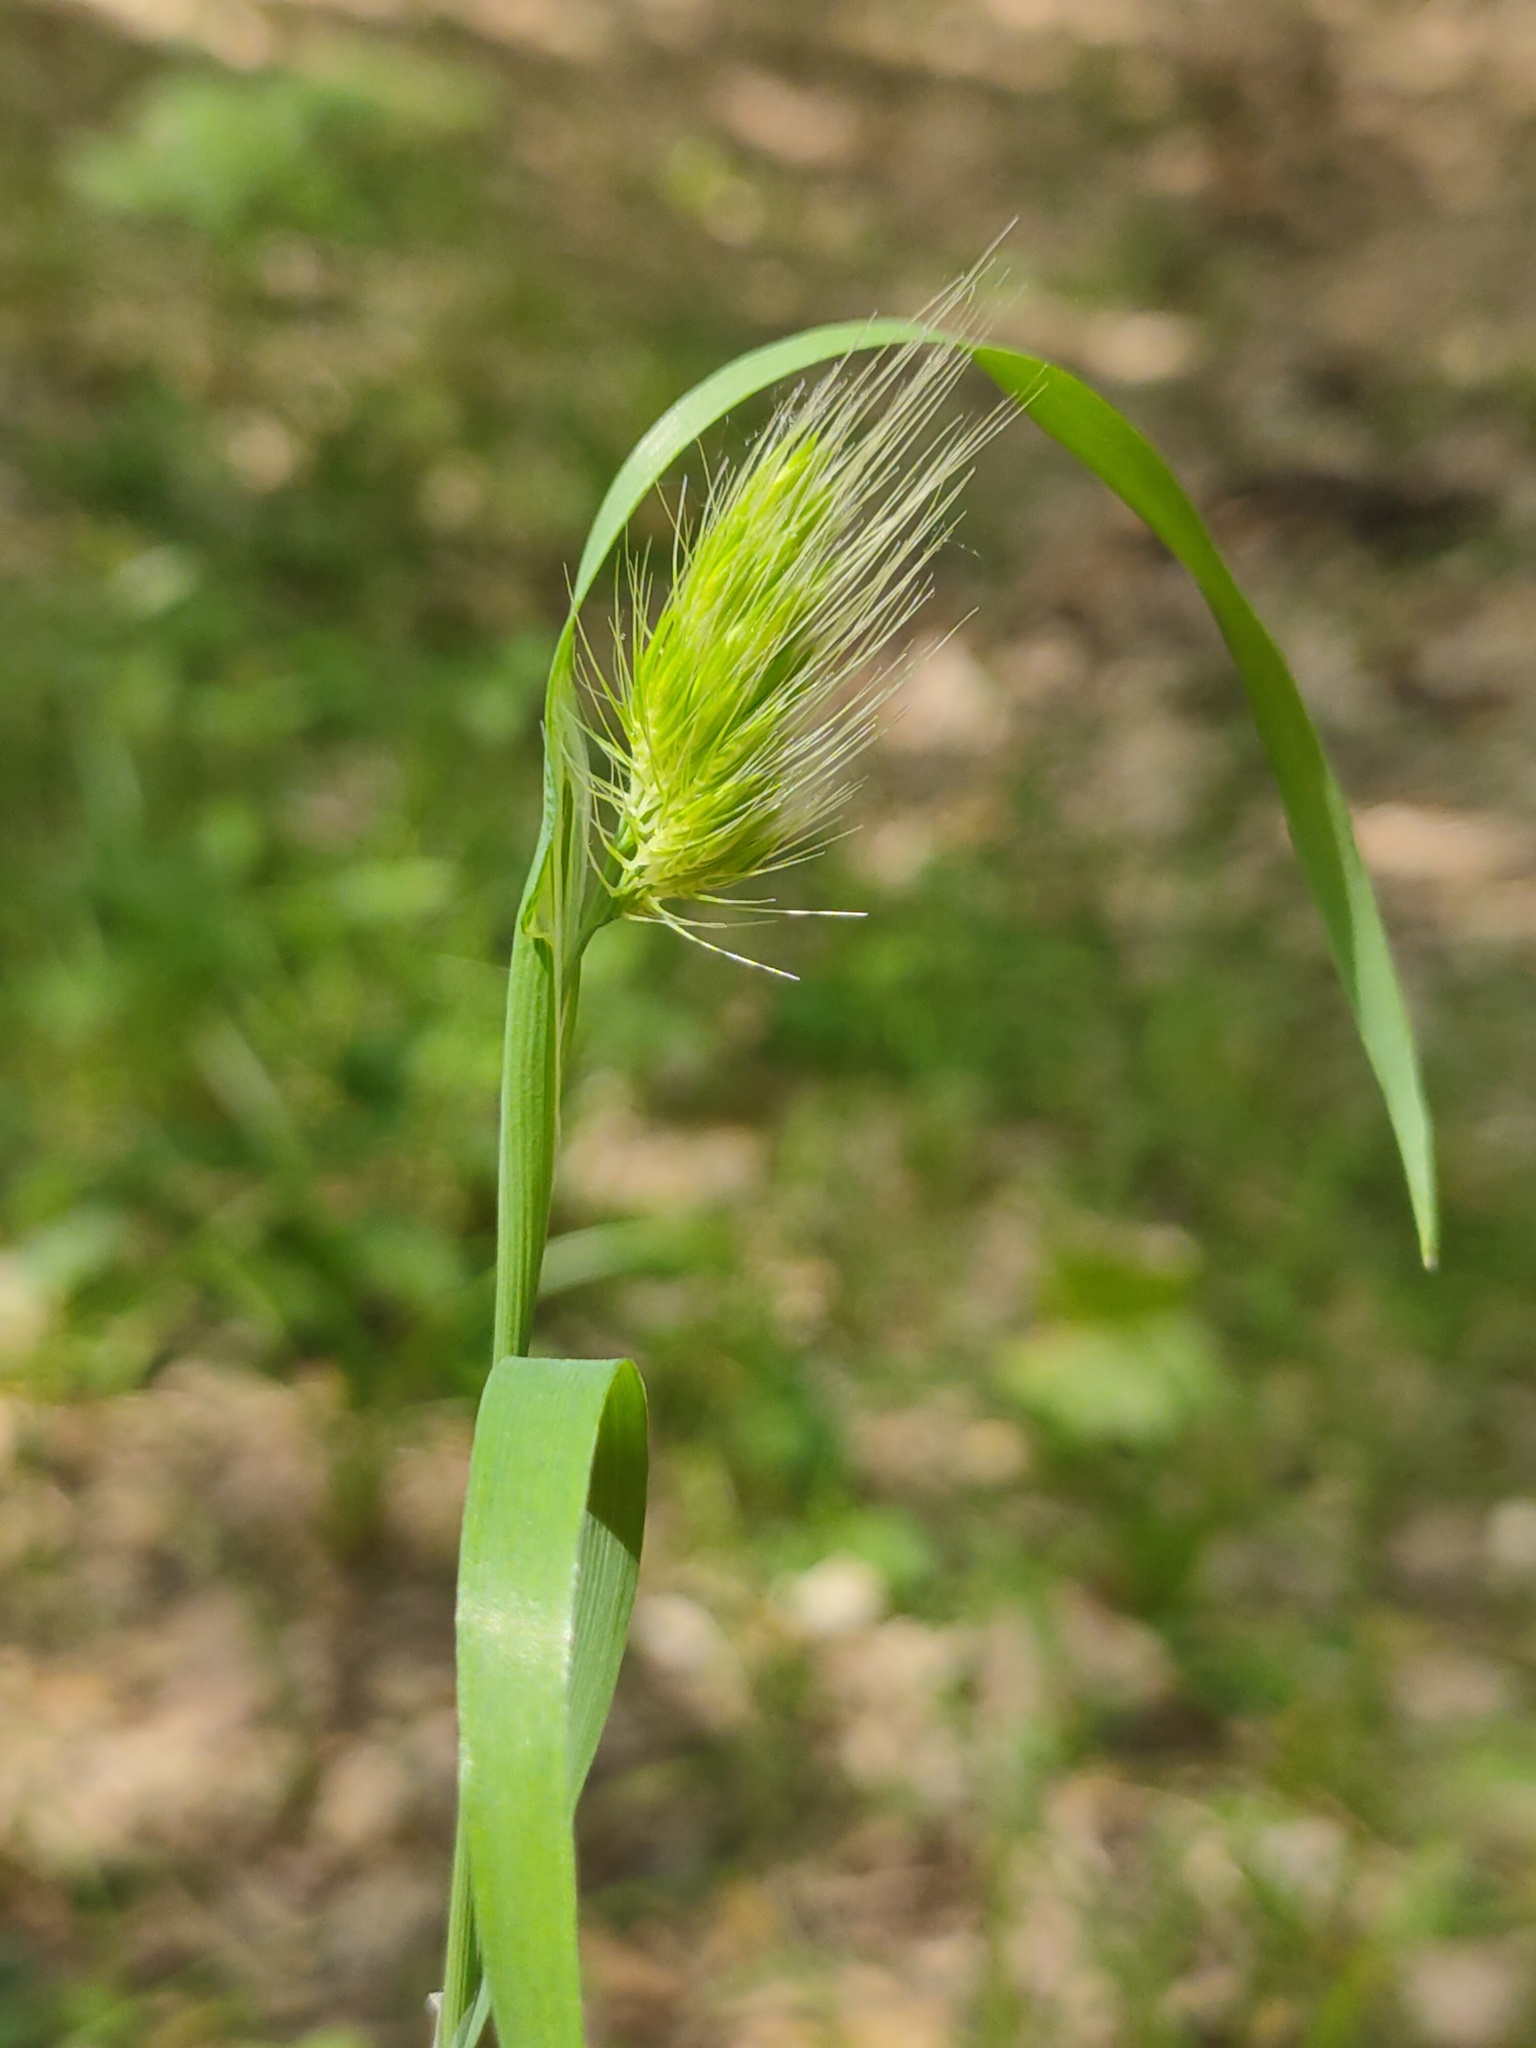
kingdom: Plantae
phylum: Tracheophyta
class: Liliopsida
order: Poales
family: Poaceae
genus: Cynosurus
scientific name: Cynosurus echinatus
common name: Rough dog's-tail
